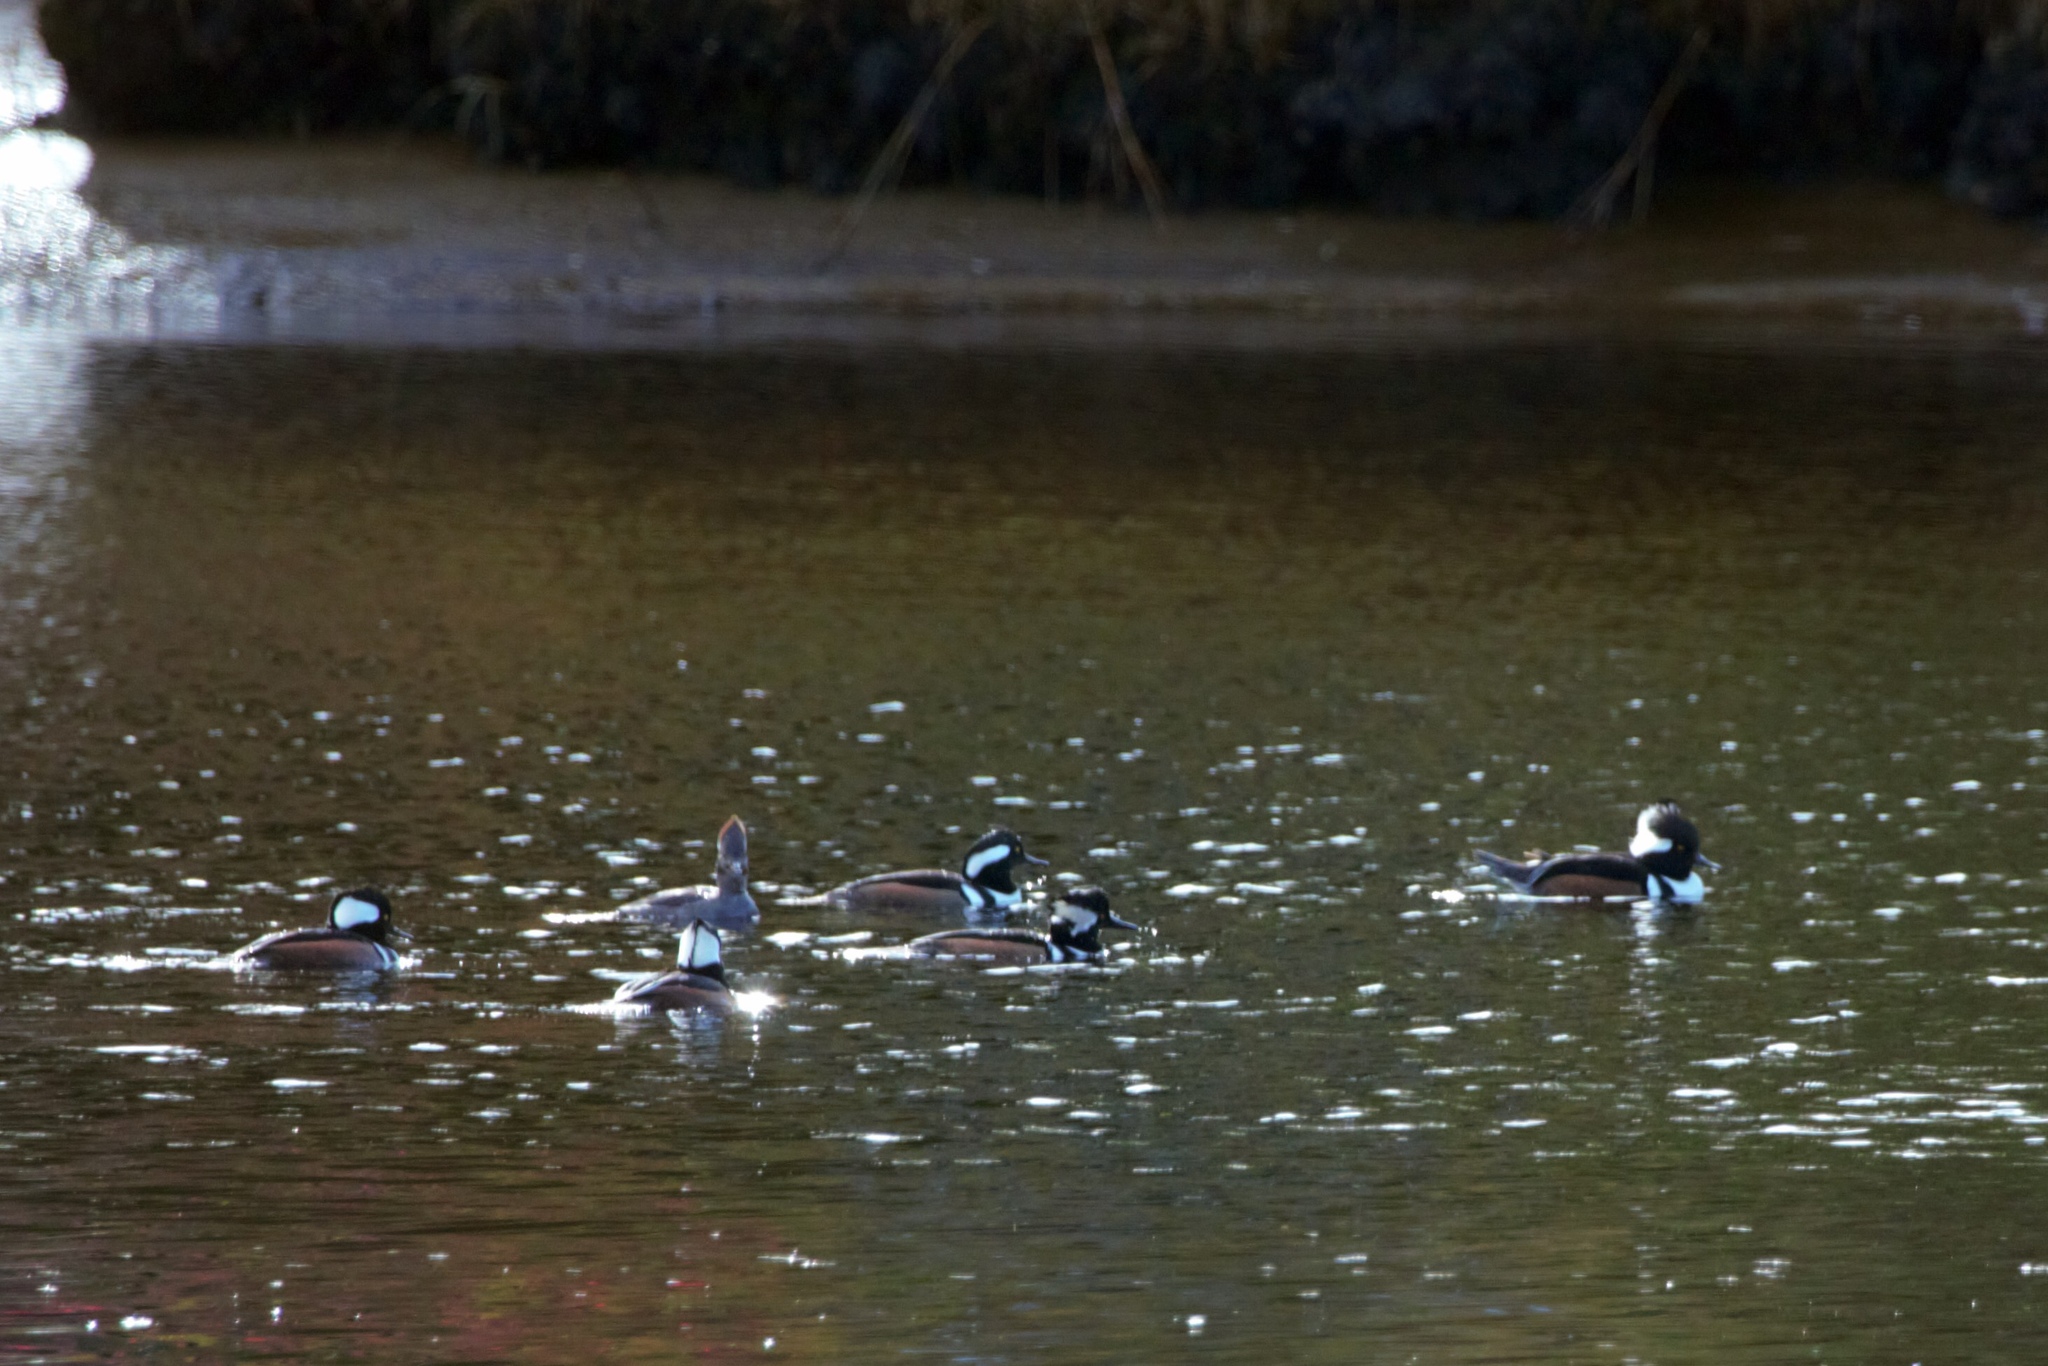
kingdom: Animalia
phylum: Chordata
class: Aves
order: Anseriformes
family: Anatidae
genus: Lophodytes
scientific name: Lophodytes cucullatus
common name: Hooded merganser
